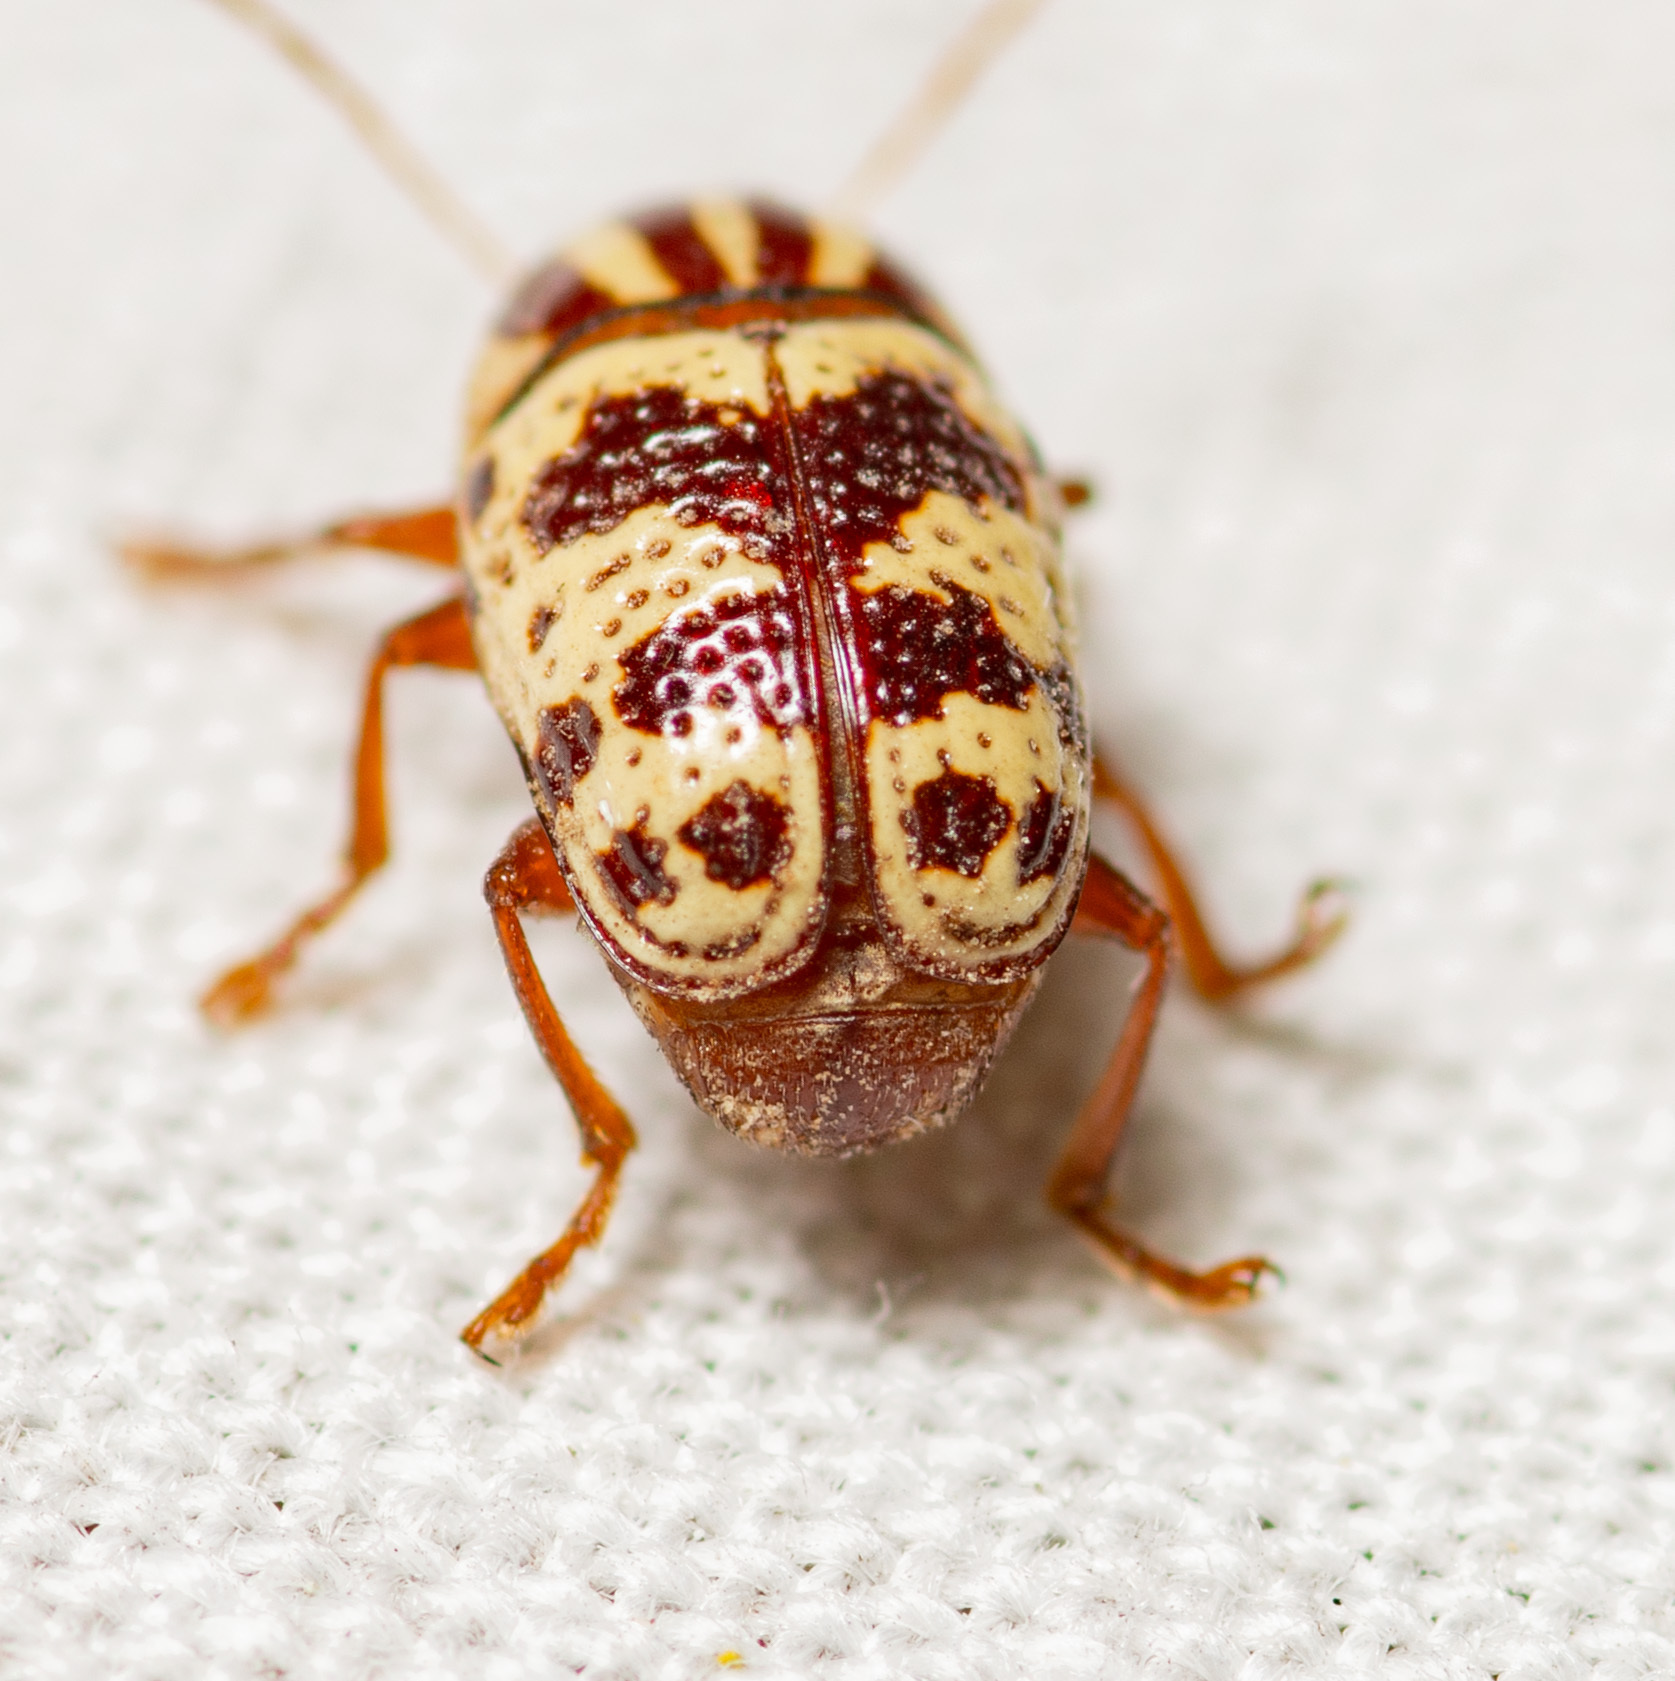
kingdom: Animalia
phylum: Arthropoda
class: Insecta
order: Coleoptera
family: Chrysomelidae
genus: Cryptocephalus
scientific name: Cryptocephalus leucomelas
